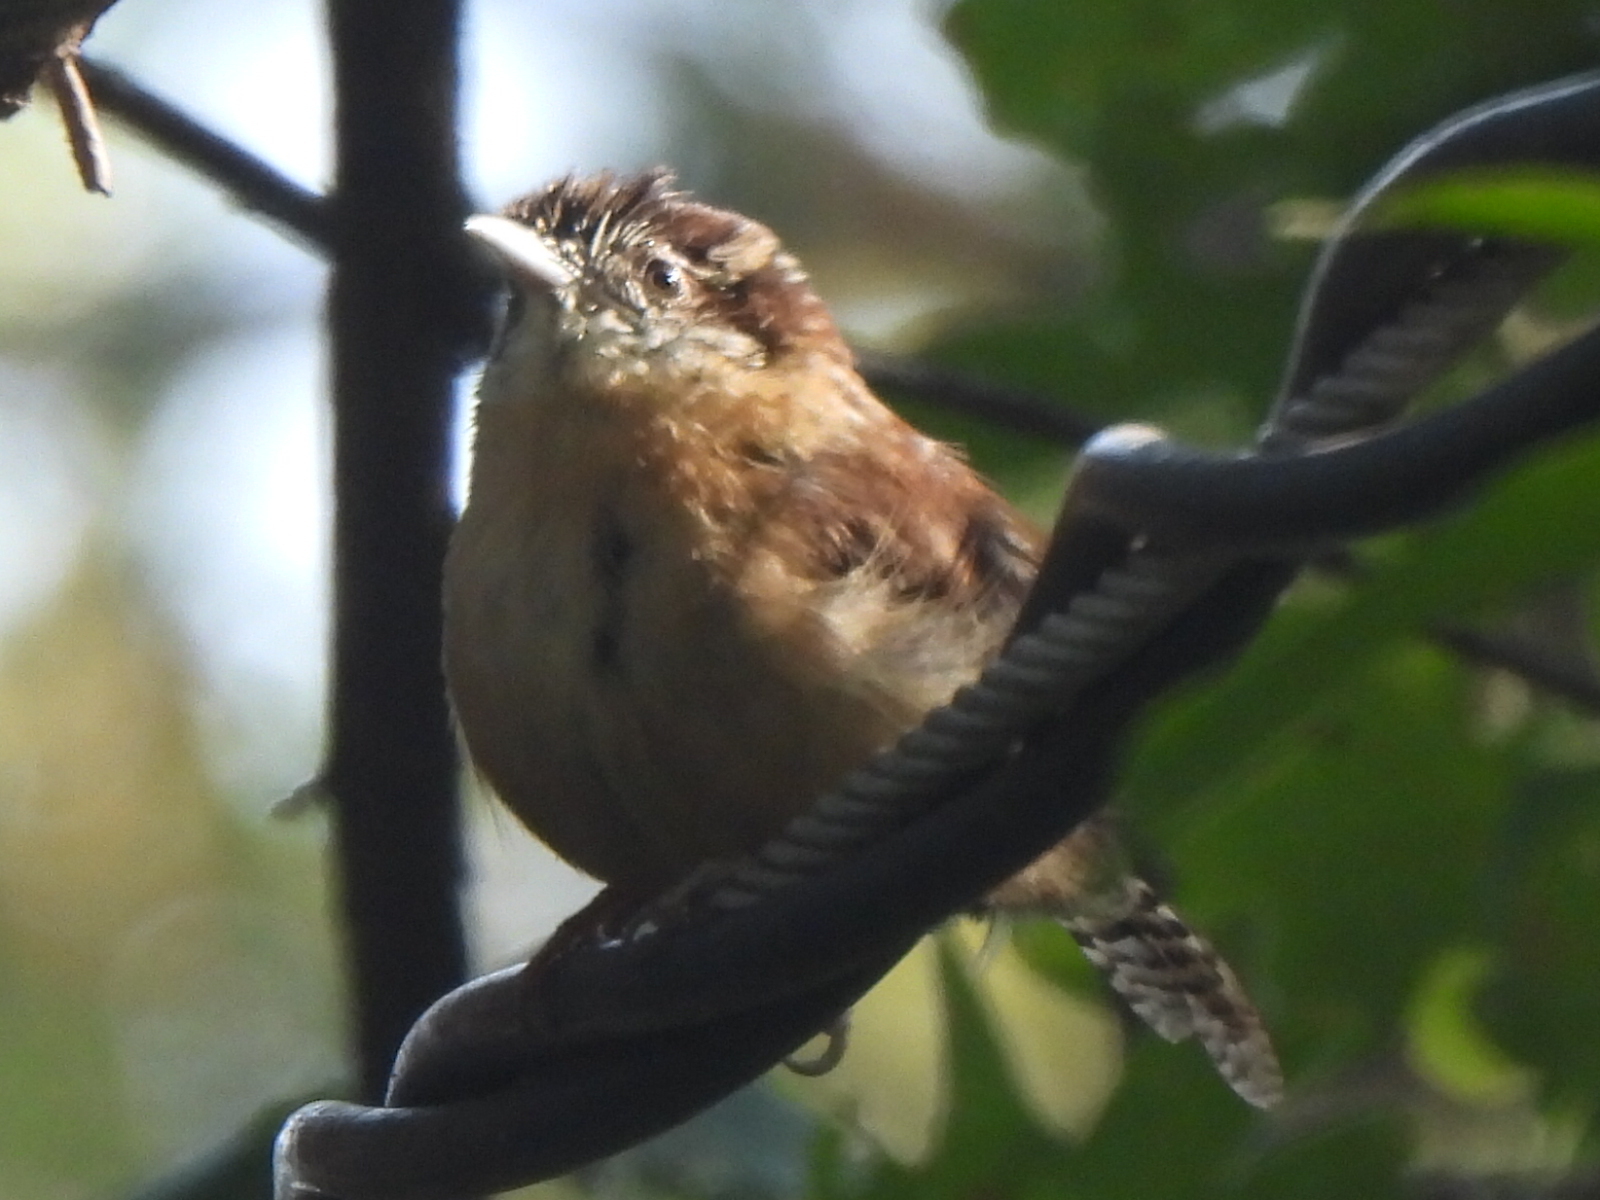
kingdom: Animalia
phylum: Chordata
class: Aves
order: Passeriformes
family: Troglodytidae
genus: Thryothorus
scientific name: Thryothorus ludovicianus
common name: Carolina wren
